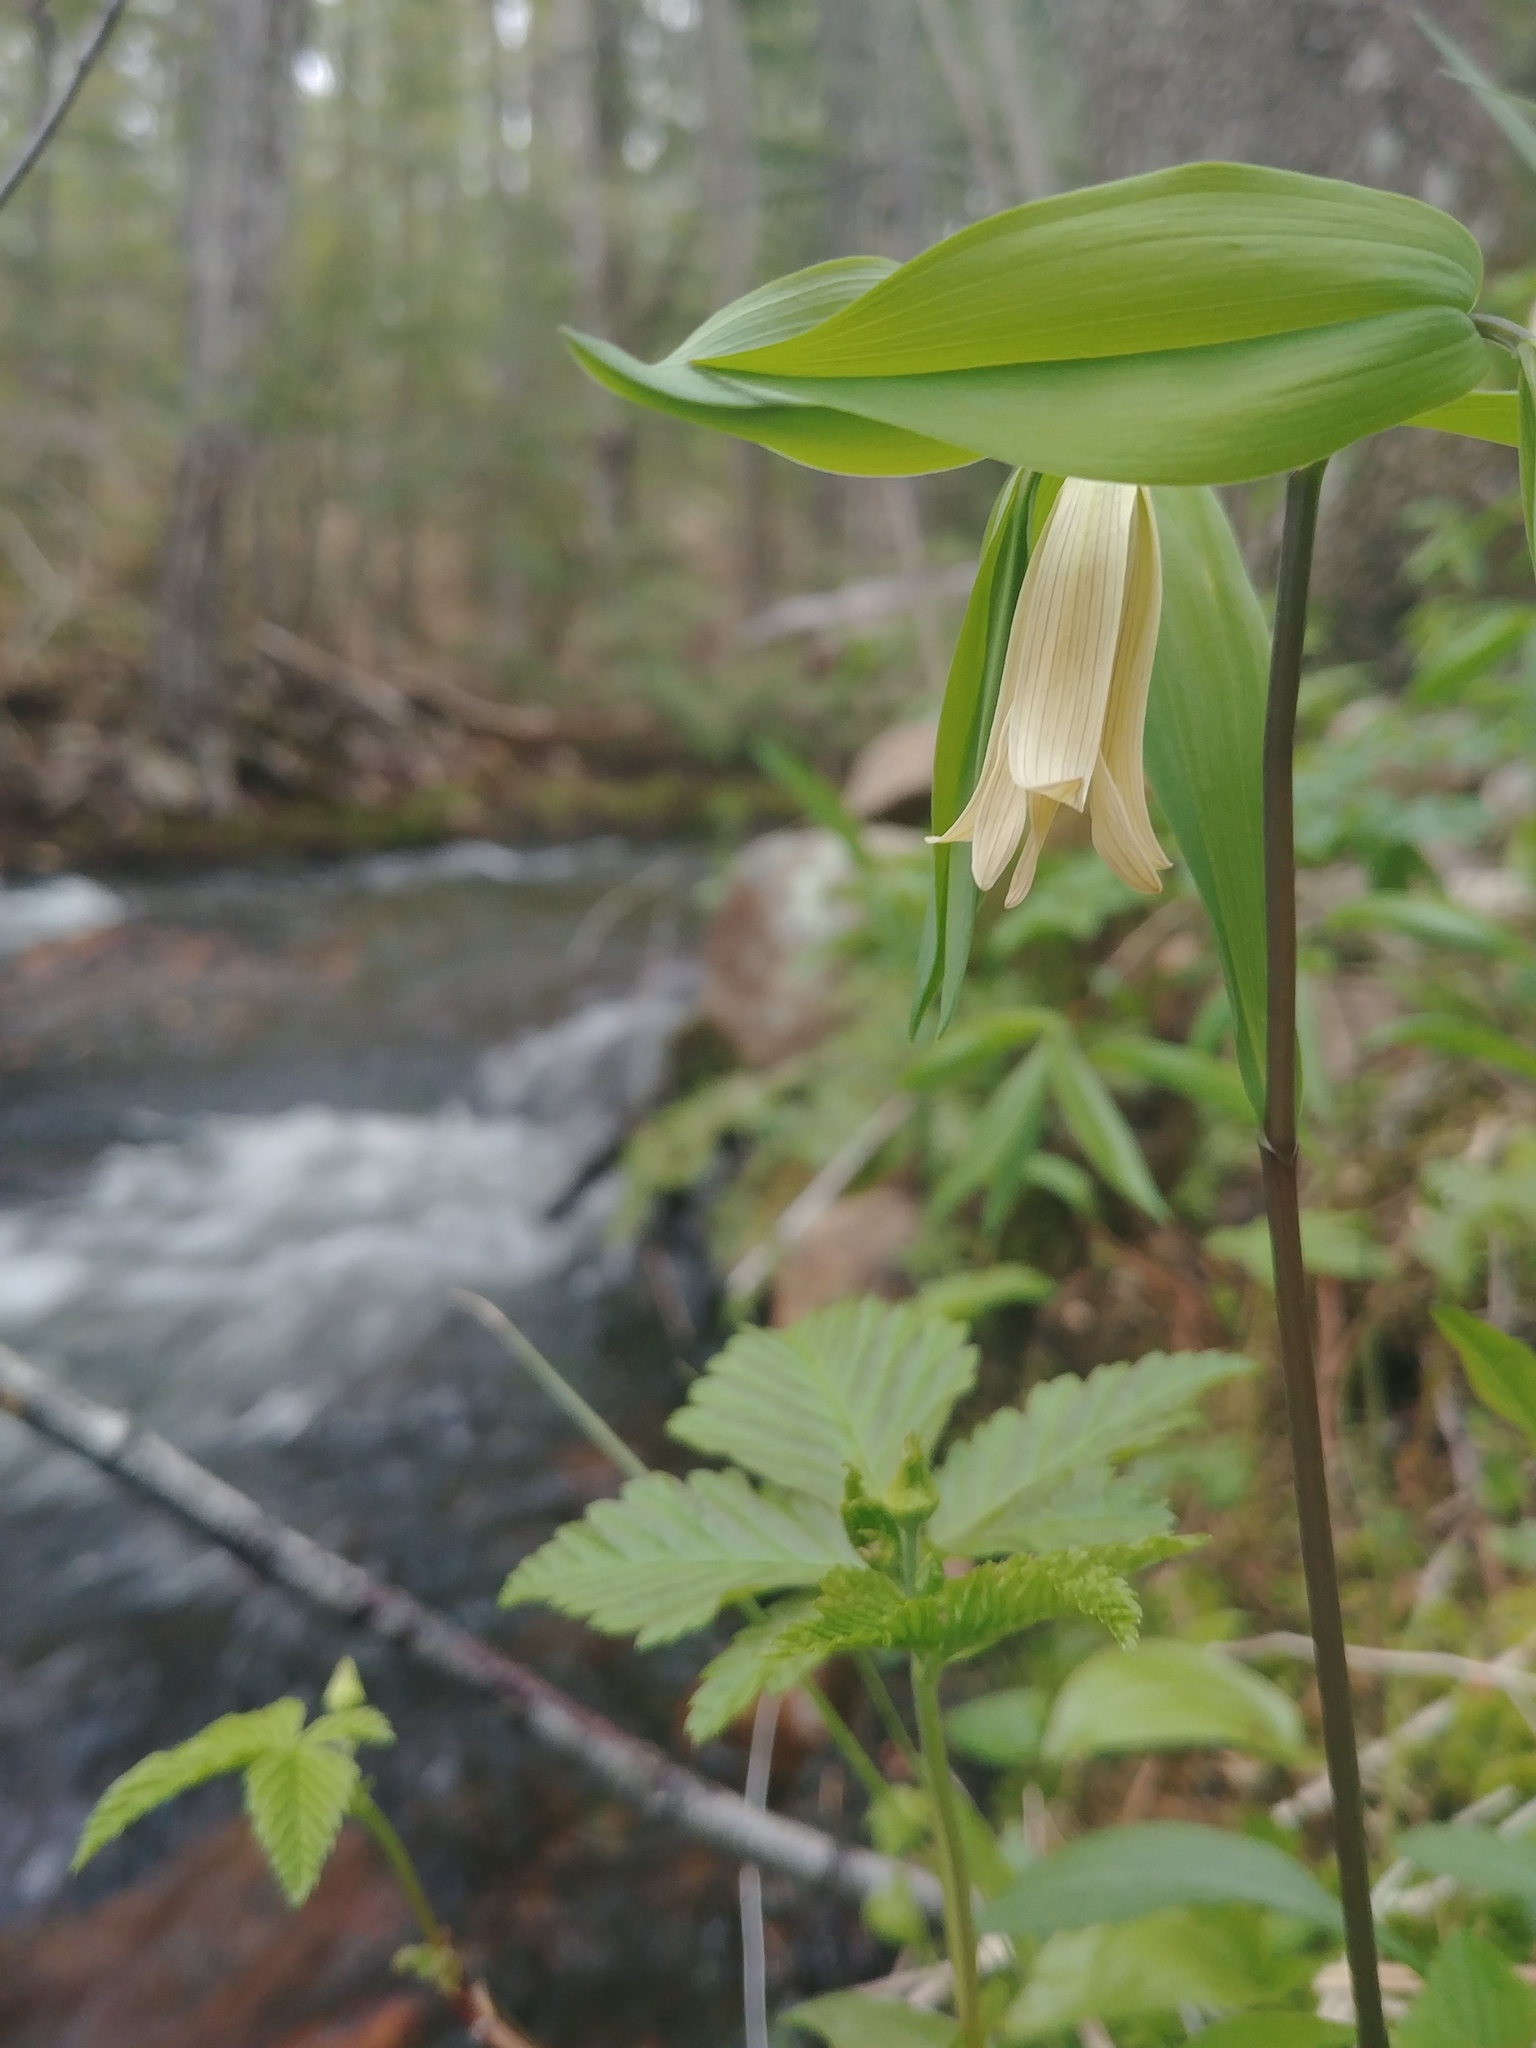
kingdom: Plantae
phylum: Tracheophyta
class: Liliopsida
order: Liliales
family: Colchicaceae
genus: Uvularia
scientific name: Uvularia sessilifolia
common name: Straw-lily
